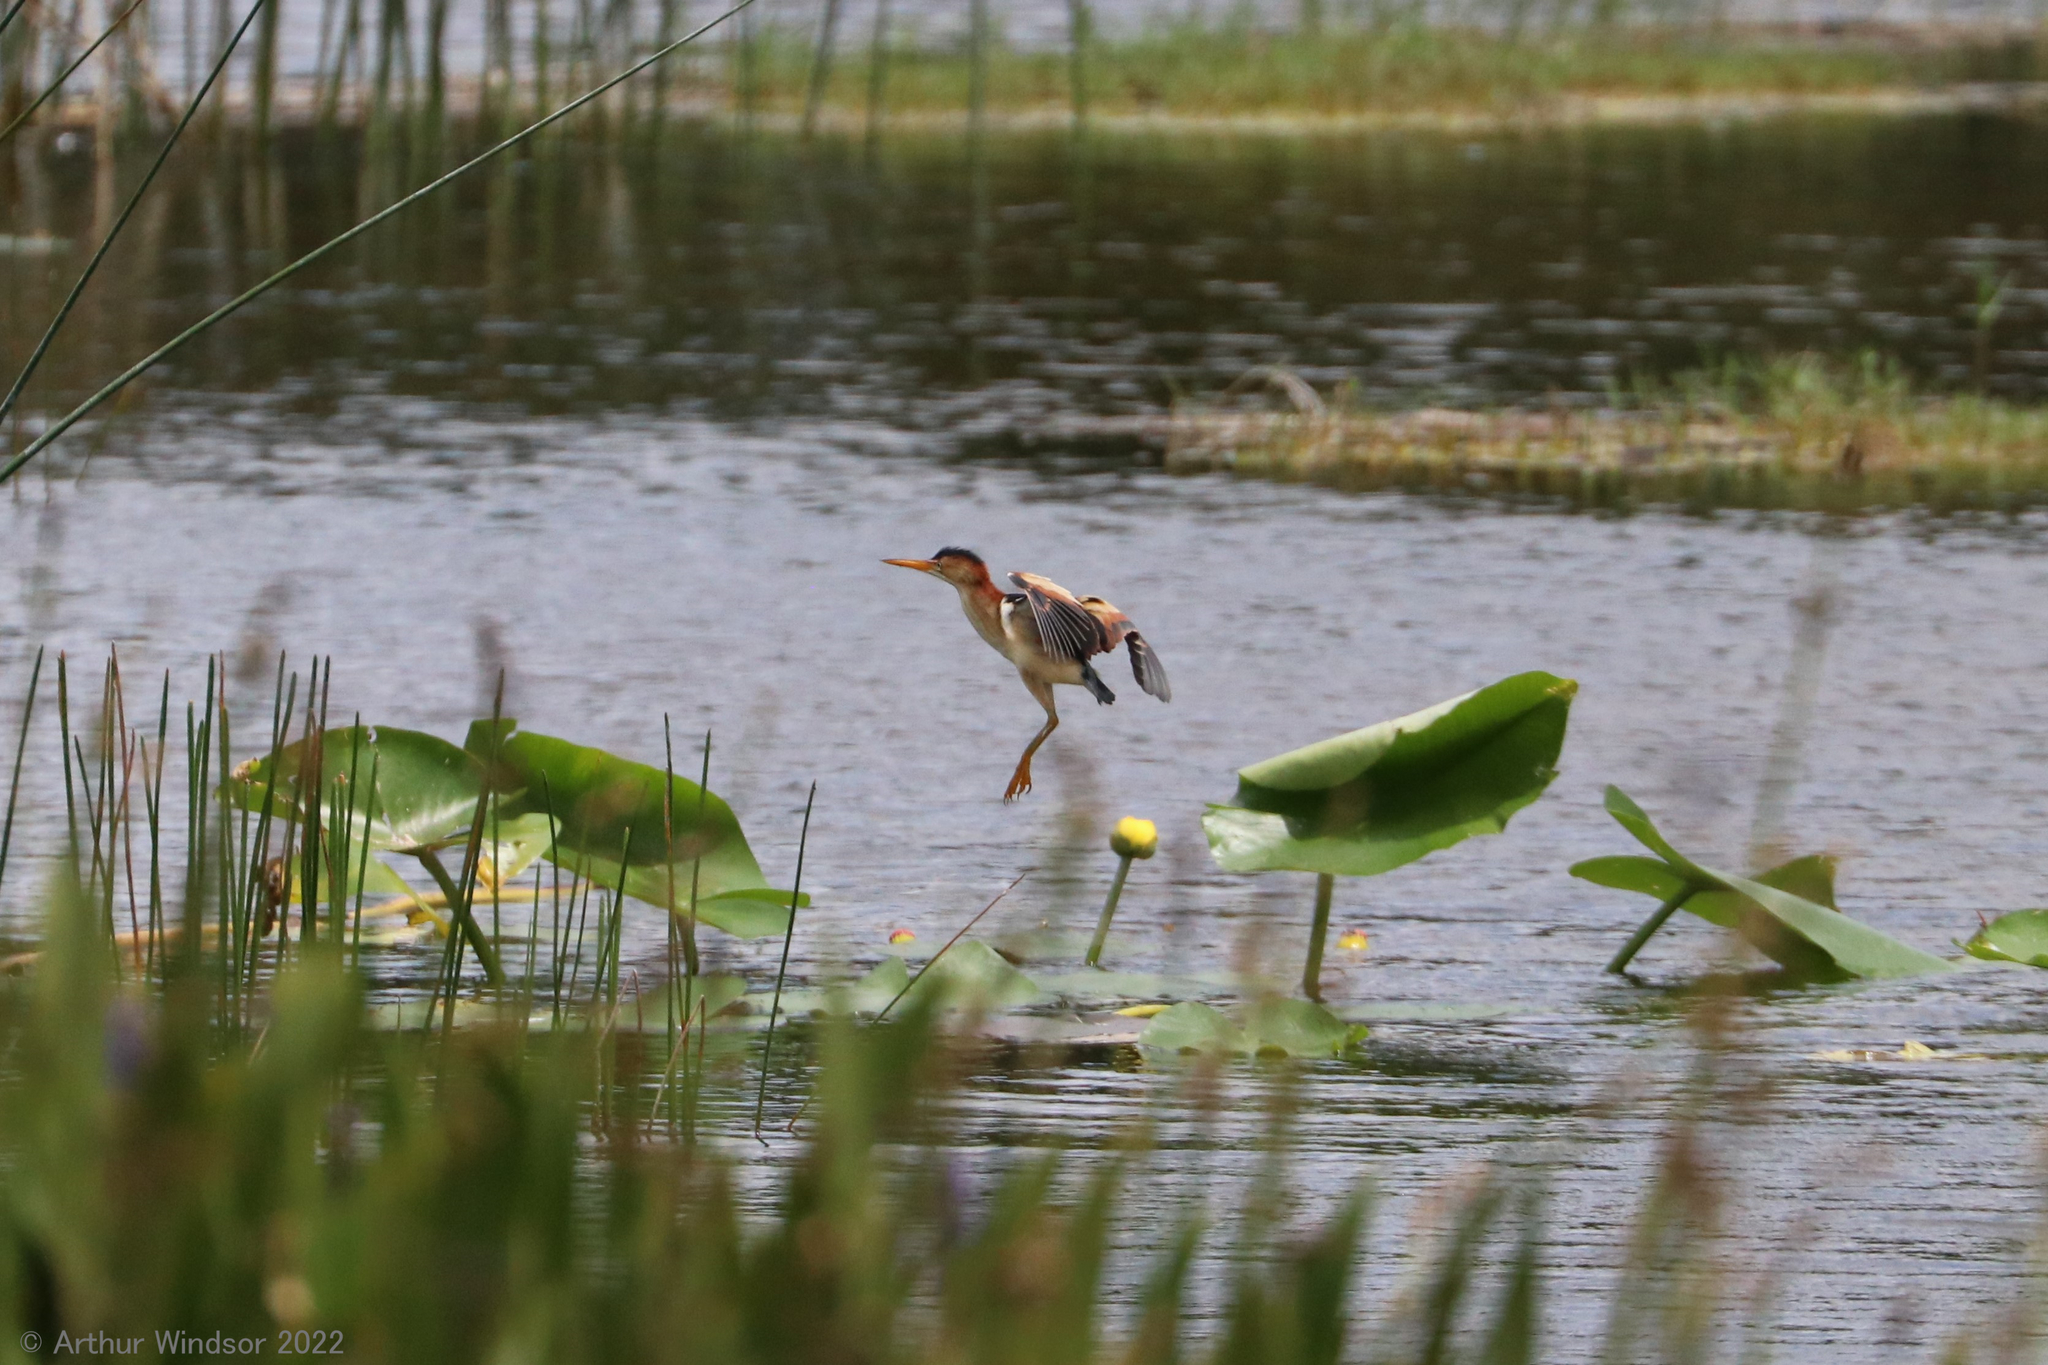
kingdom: Animalia
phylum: Chordata
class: Aves
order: Pelecaniformes
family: Ardeidae
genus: Ixobrychus
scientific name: Ixobrychus exilis
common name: Least bittern
